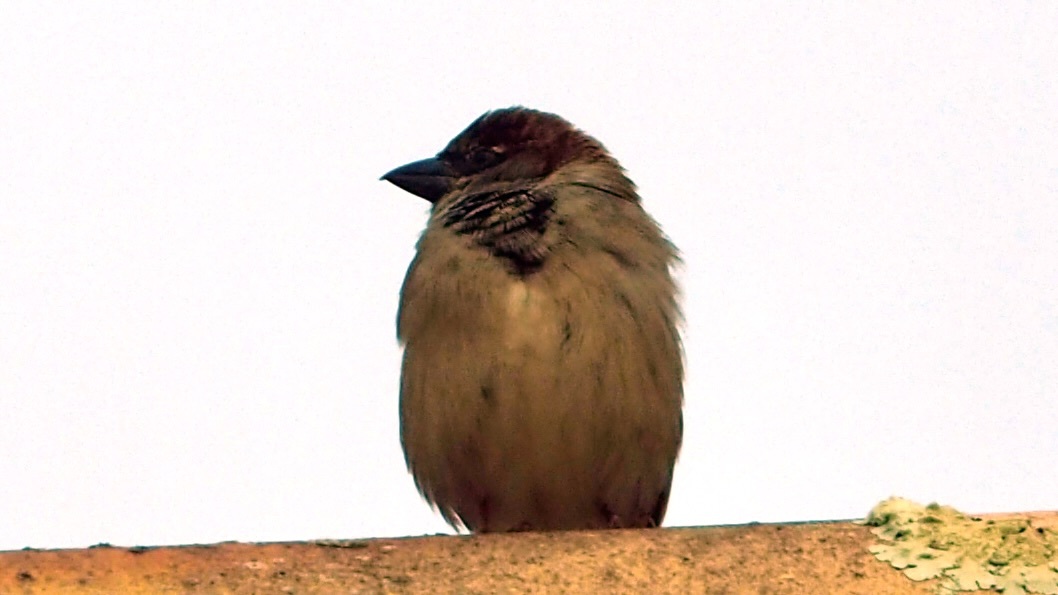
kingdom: Animalia
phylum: Chordata
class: Aves
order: Passeriformes
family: Passeridae
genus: Passer
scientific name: Passer domesticus
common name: House sparrow
